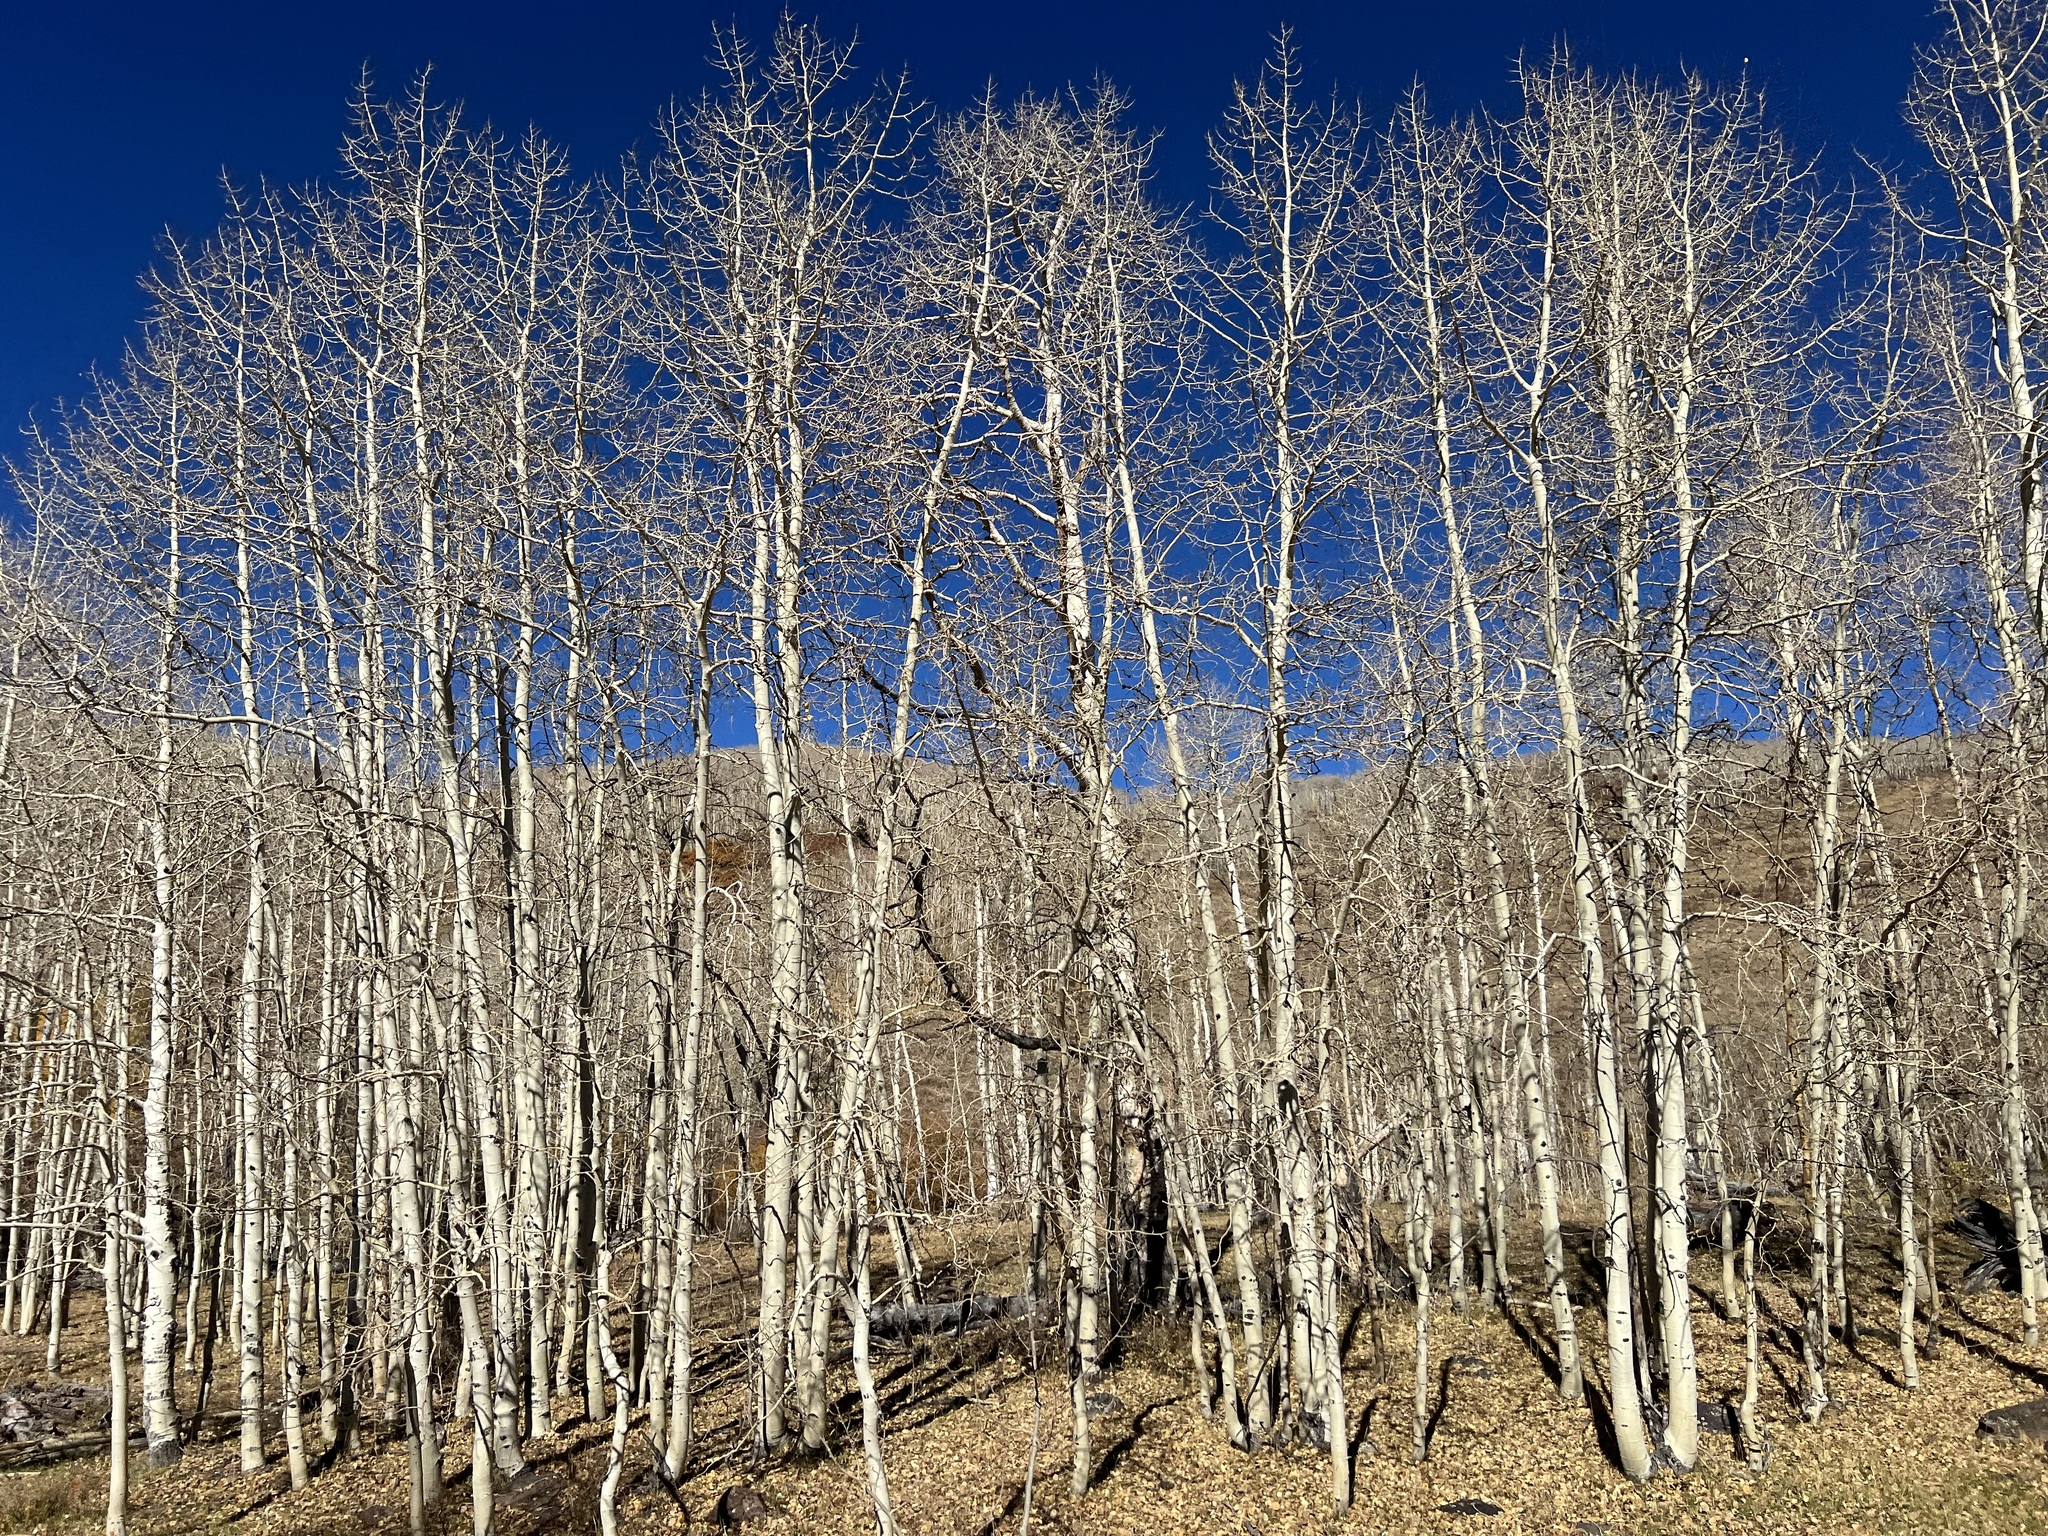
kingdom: Plantae
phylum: Tracheophyta
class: Magnoliopsida
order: Malpighiales
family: Salicaceae
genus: Populus
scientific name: Populus tremuloides
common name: Quaking aspen
